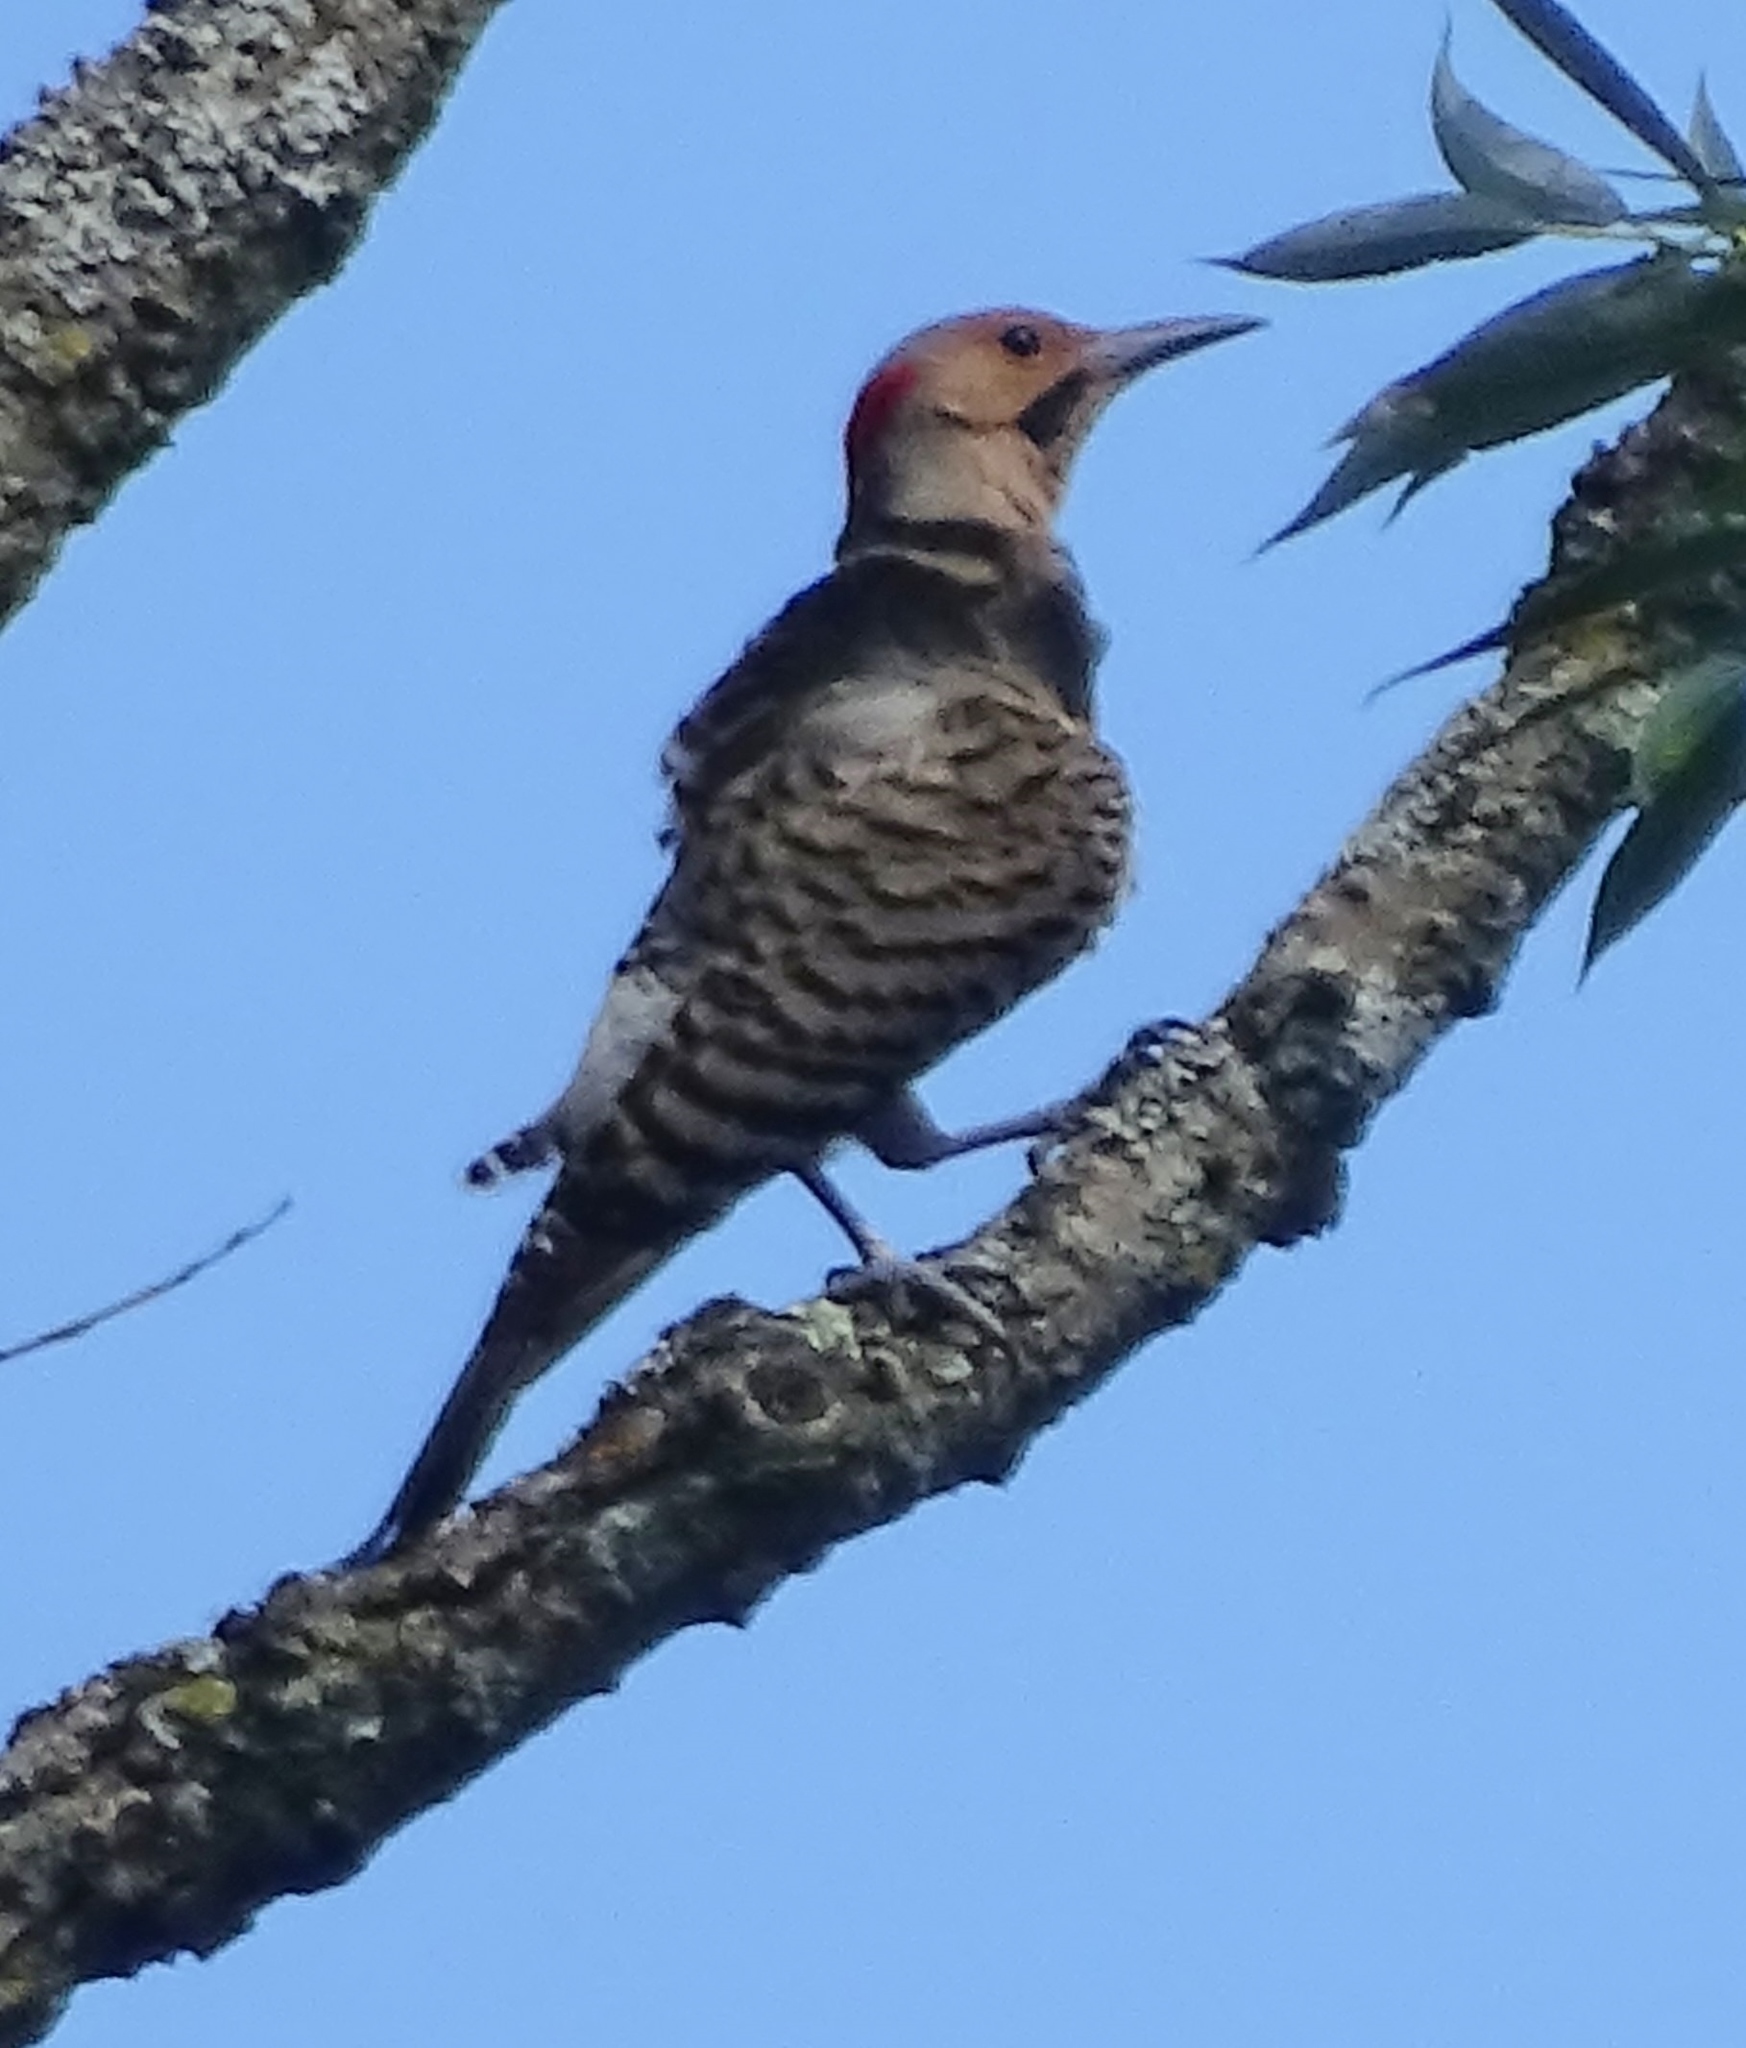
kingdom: Animalia
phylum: Chordata
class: Aves
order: Piciformes
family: Picidae
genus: Colaptes
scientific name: Colaptes auratus
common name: Northern flicker
